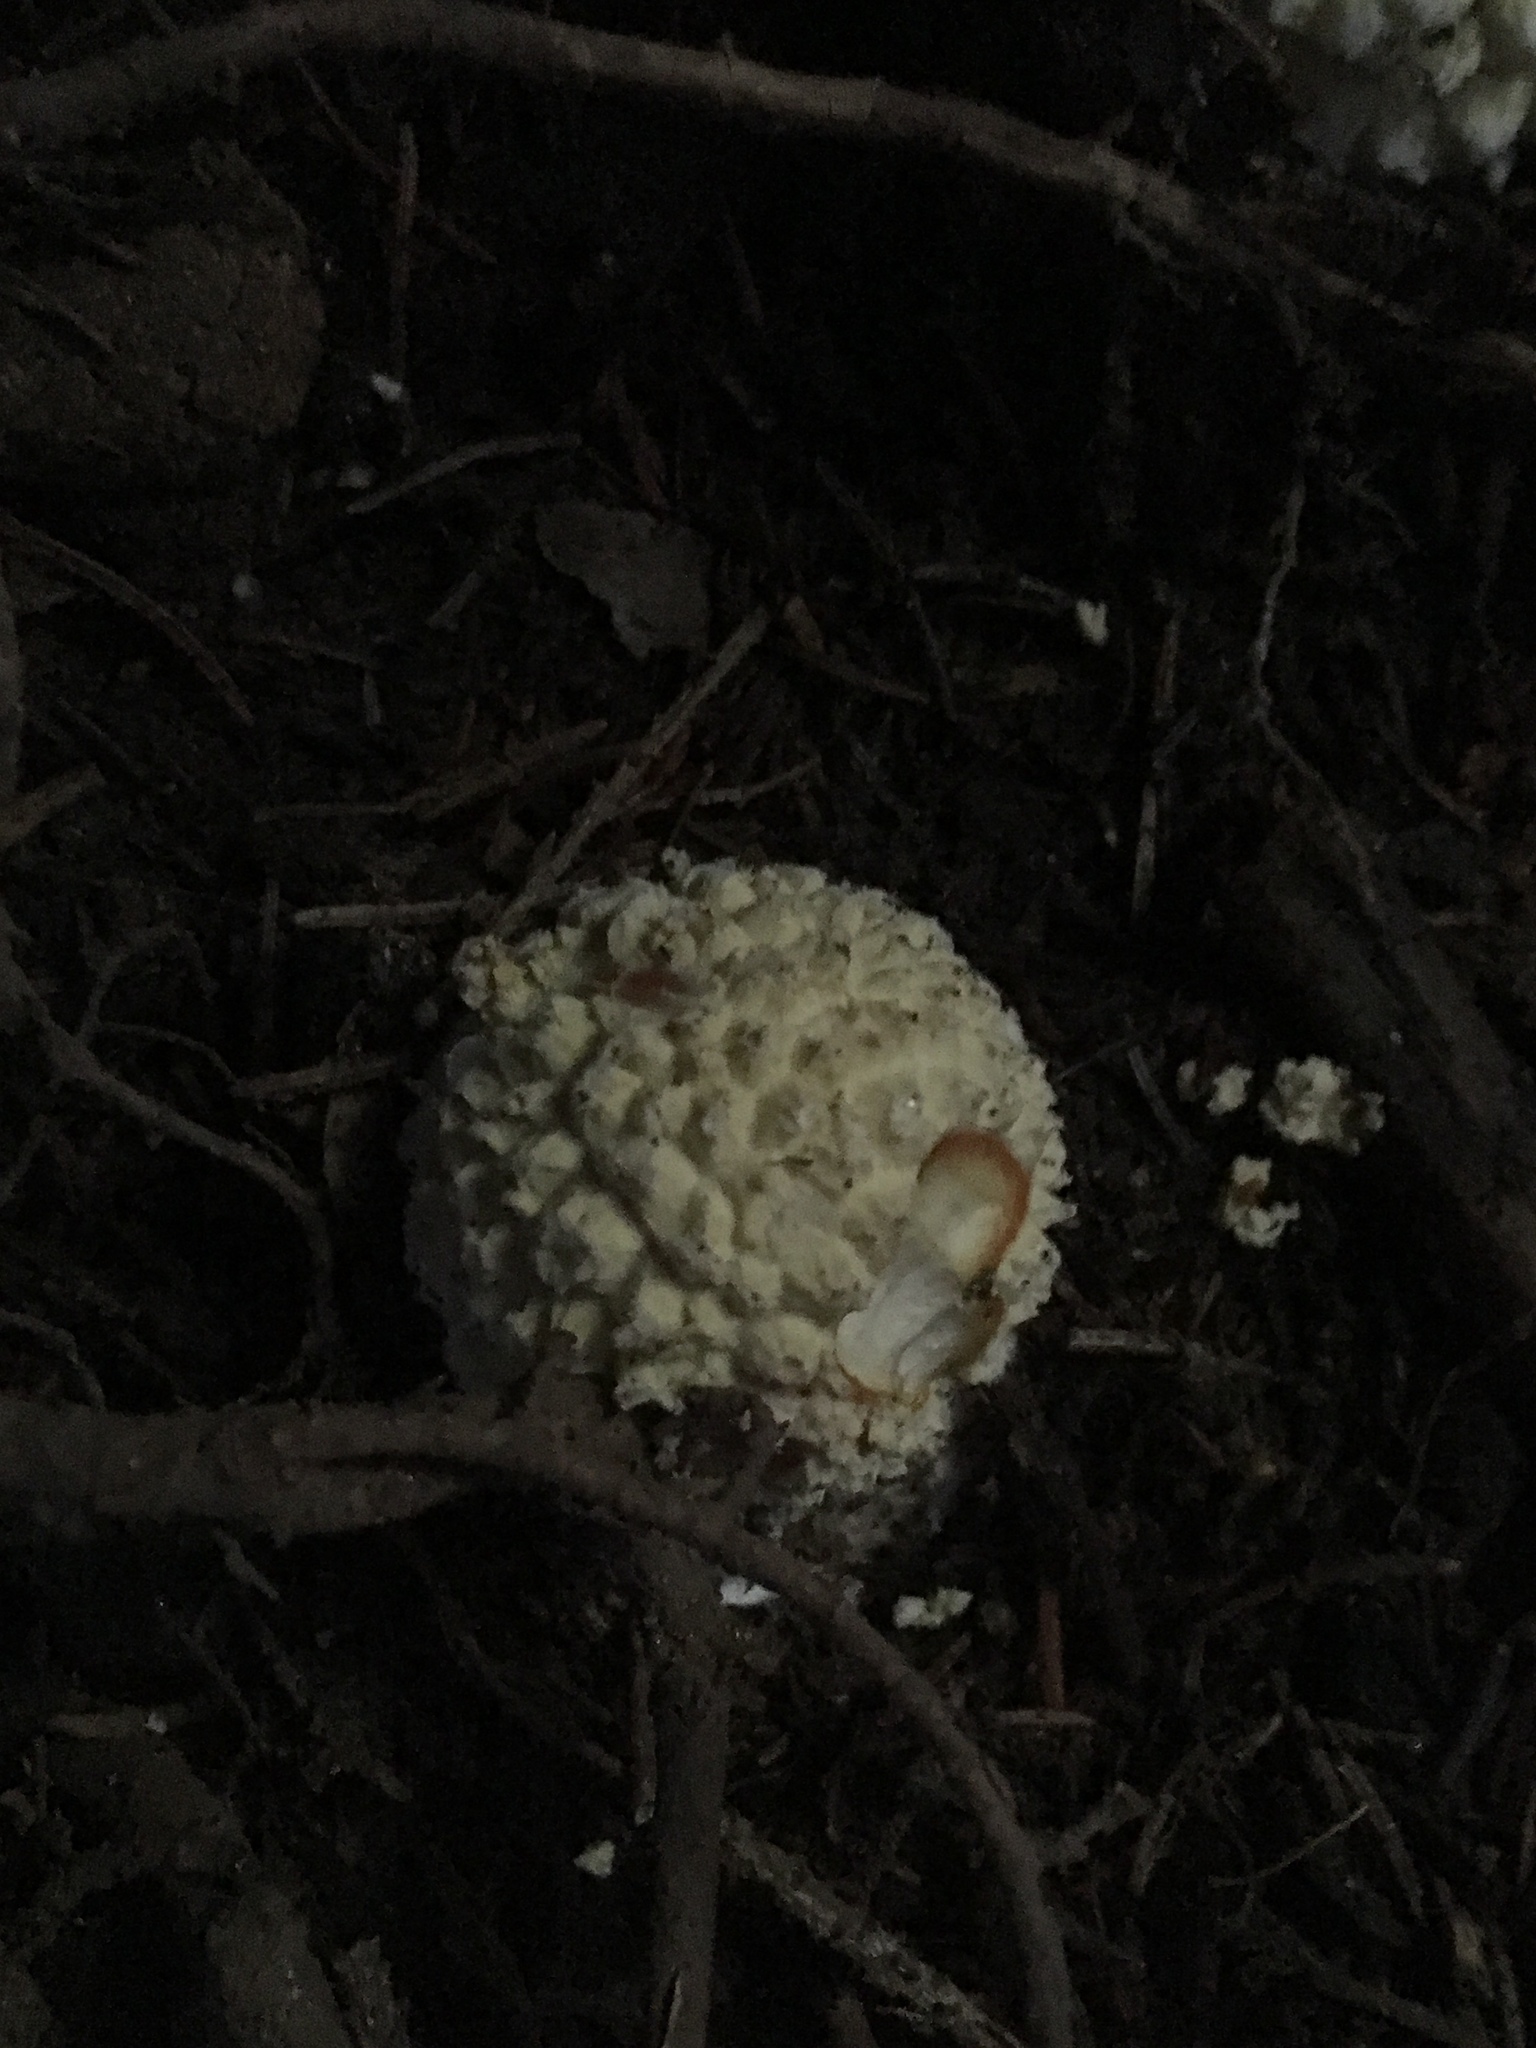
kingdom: Fungi
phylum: Basidiomycota
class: Agaricomycetes
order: Agaricales
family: Amanitaceae
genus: Amanita
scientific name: Amanita muscaria
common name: Fly agaric
